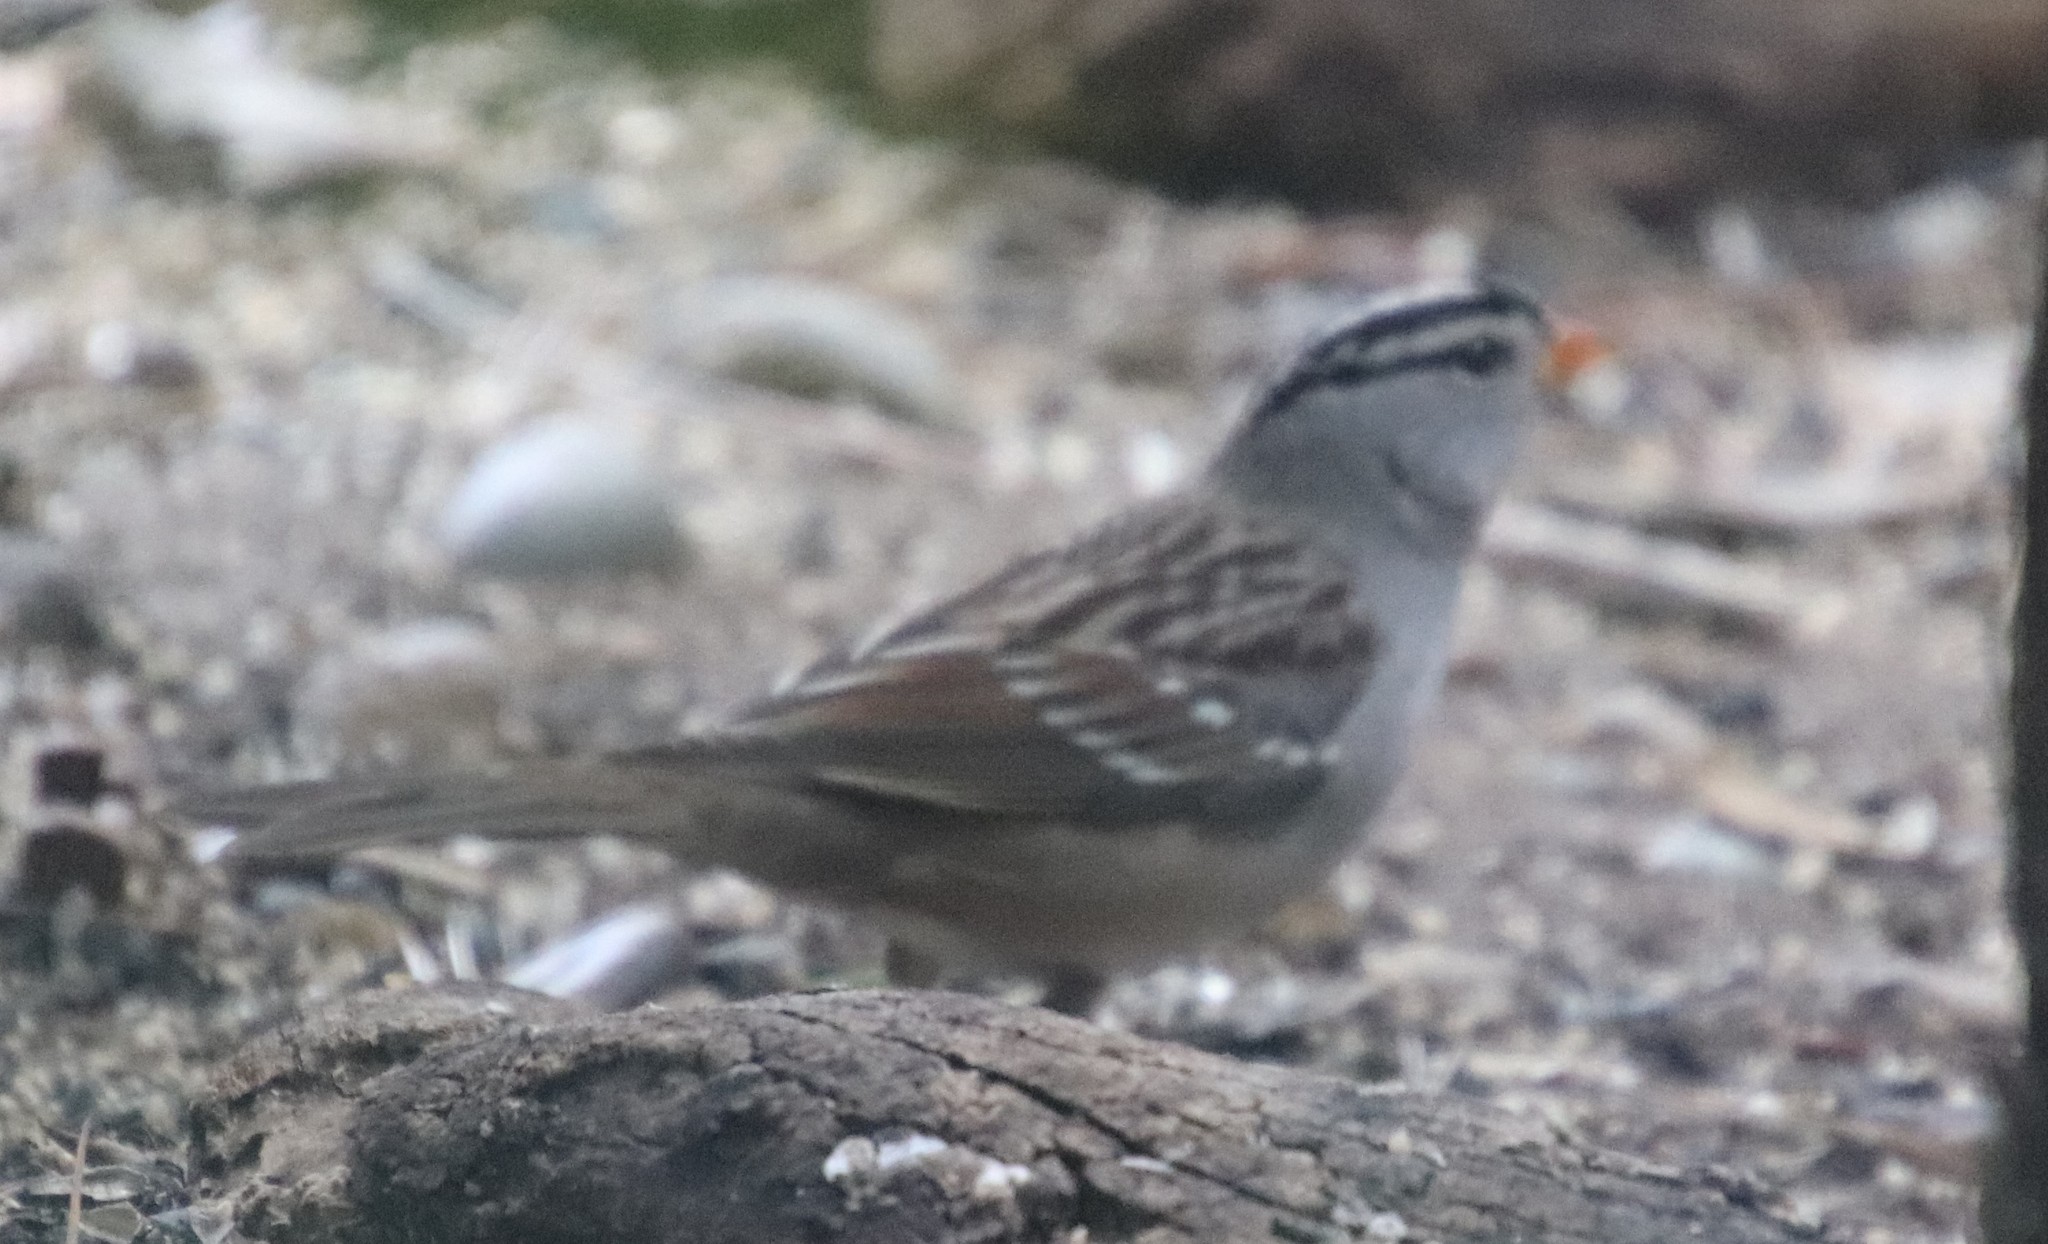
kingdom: Animalia
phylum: Chordata
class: Aves
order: Passeriformes
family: Passerellidae
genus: Zonotrichia
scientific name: Zonotrichia leucophrys
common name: White-crowned sparrow
